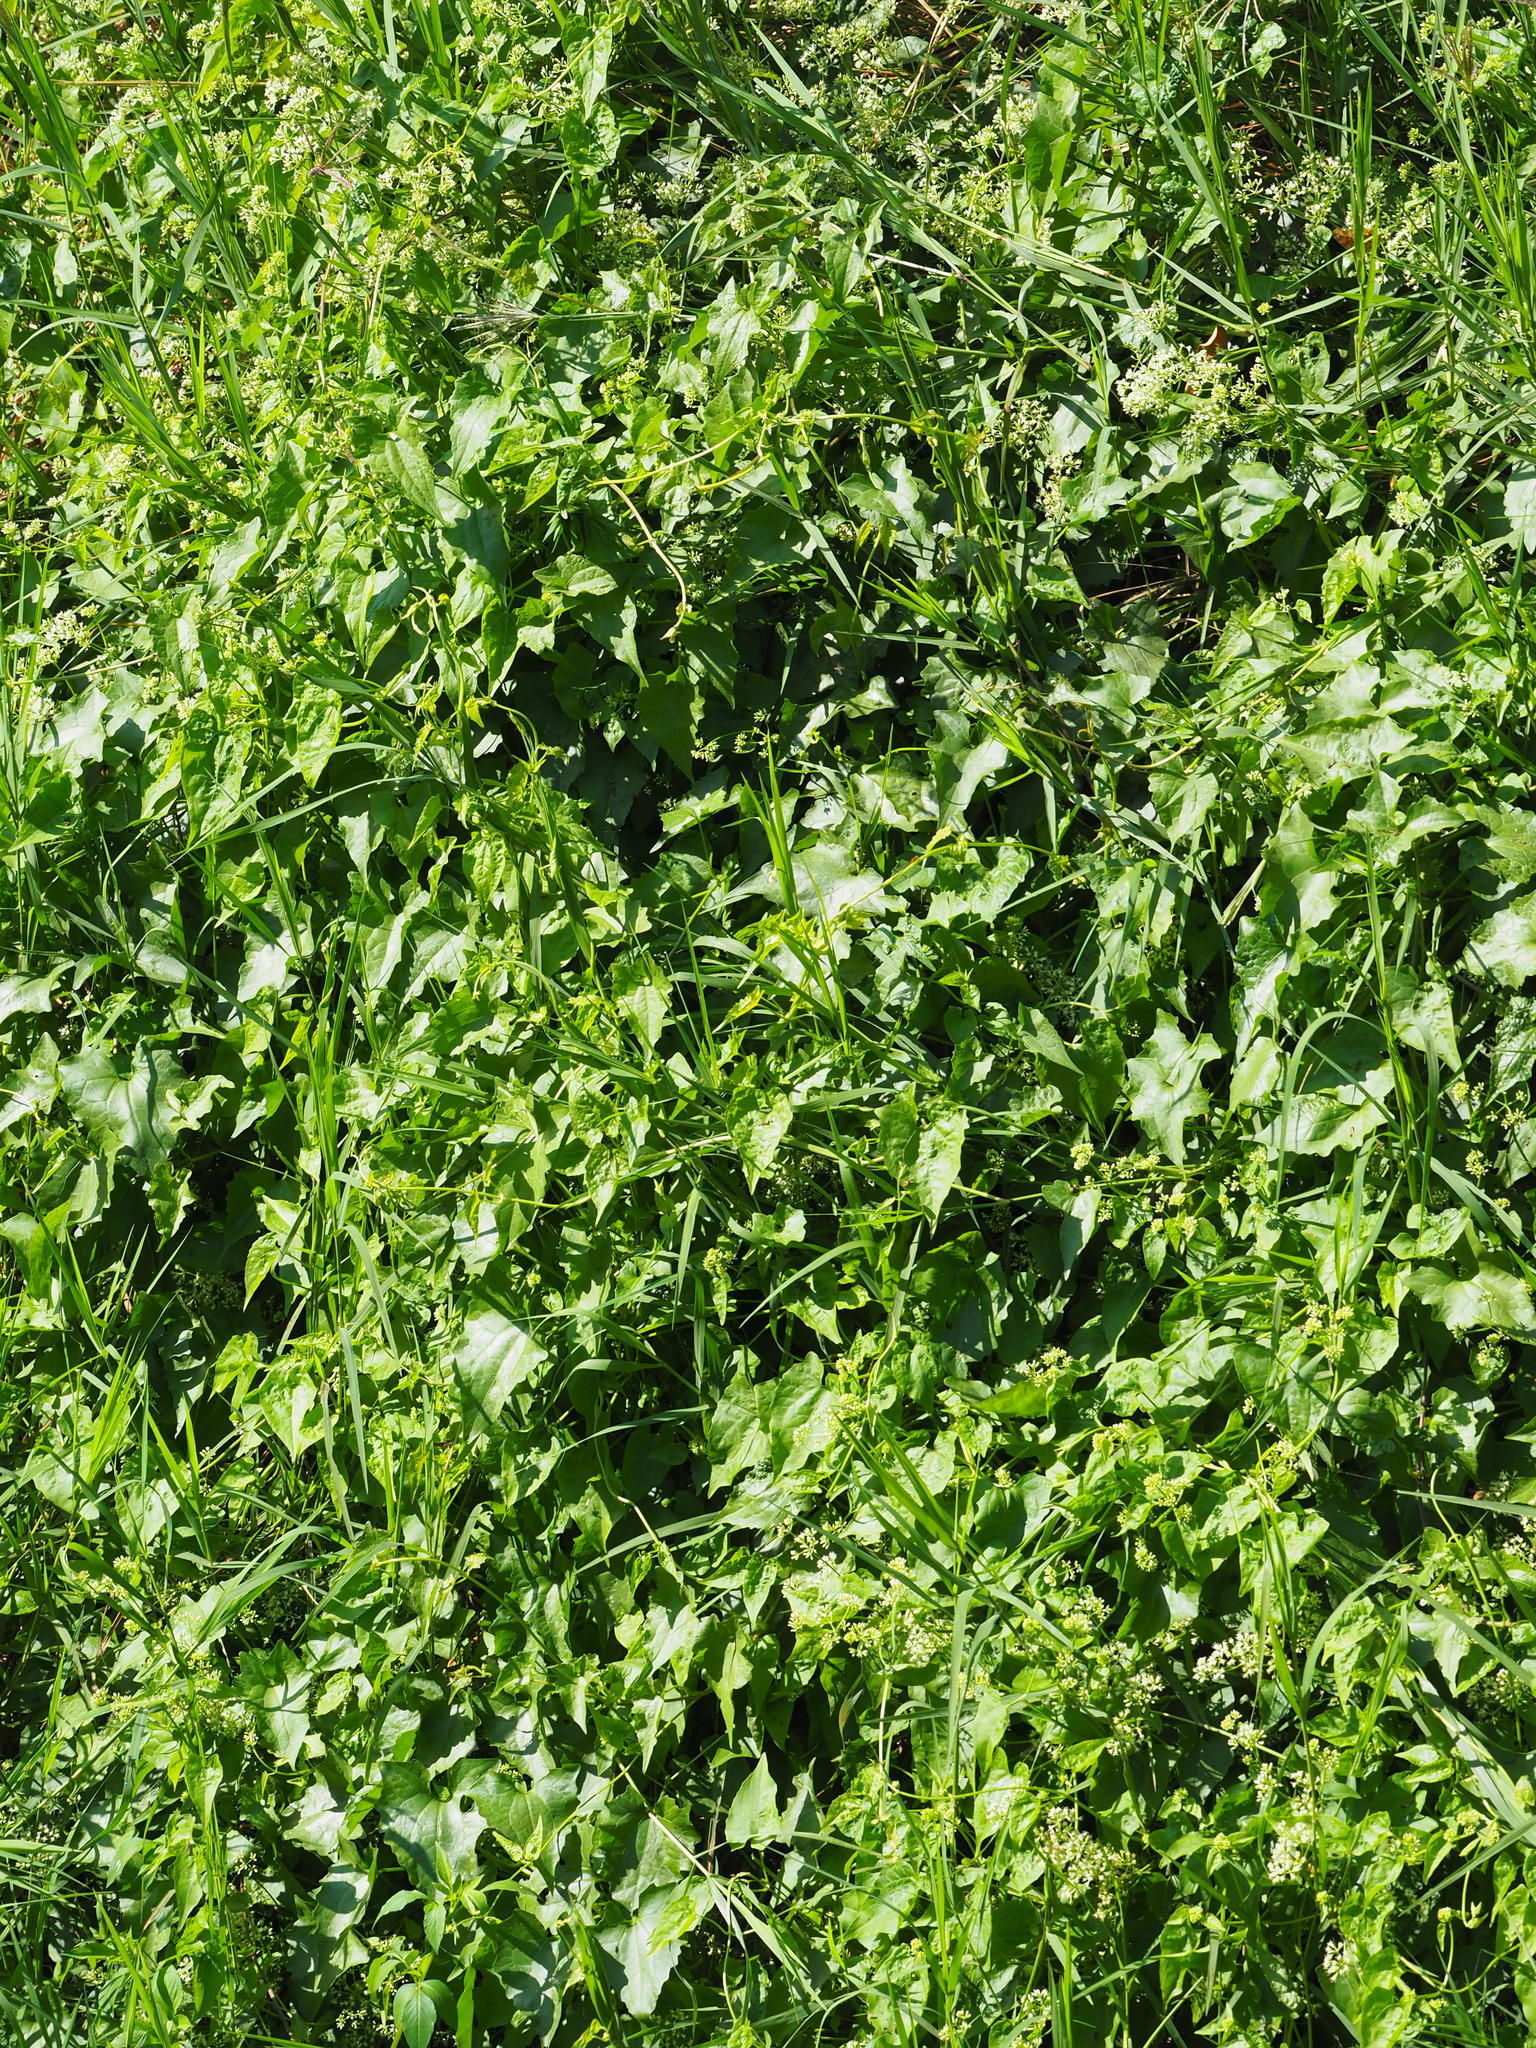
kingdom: Plantae
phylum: Tracheophyta
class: Magnoliopsida
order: Asterales
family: Asteraceae
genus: Mikania
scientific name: Mikania micrantha
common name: Mile-a-minute
